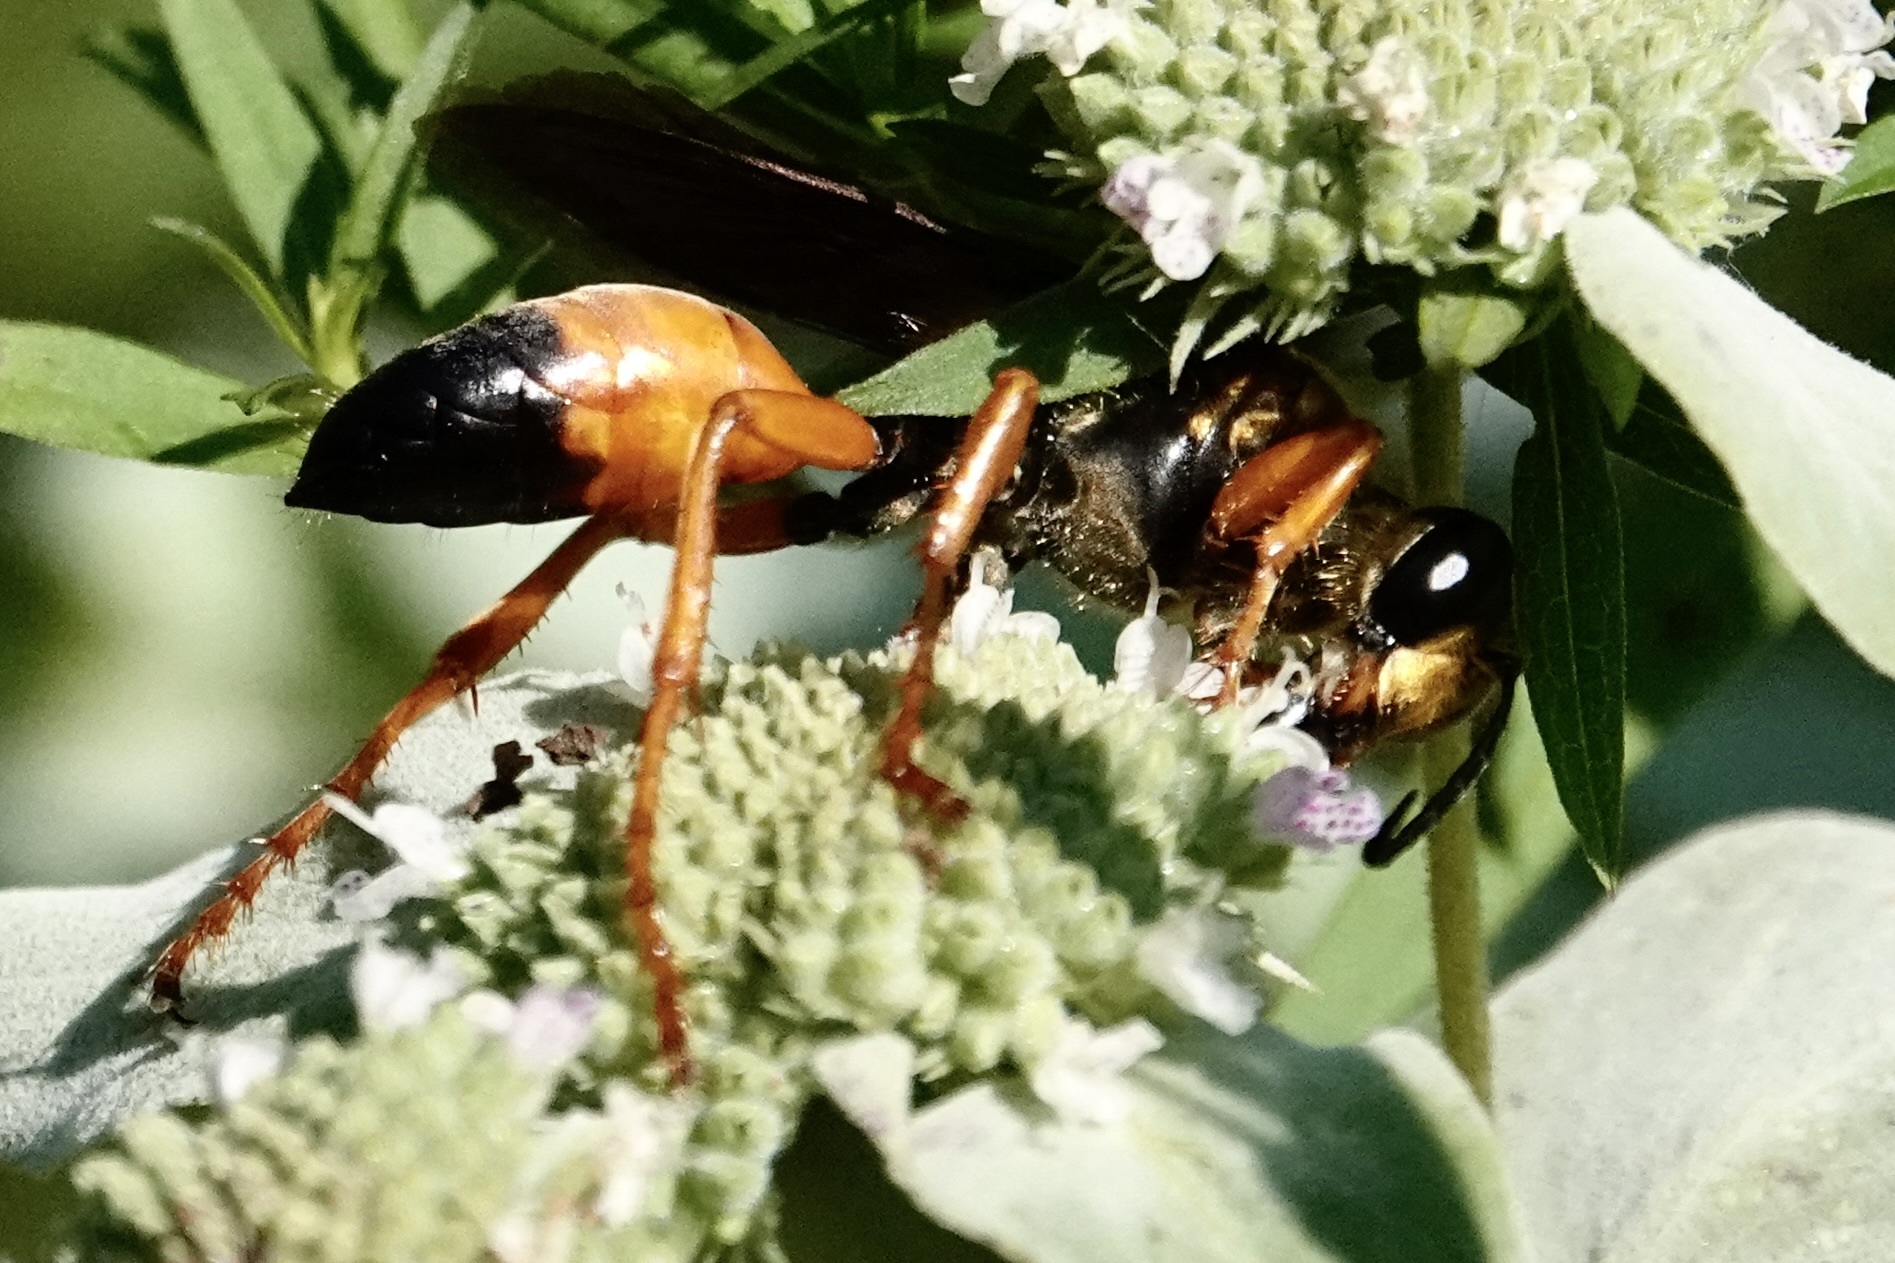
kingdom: Animalia
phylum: Arthropoda
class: Insecta
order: Hymenoptera
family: Sphecidae
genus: Sphex
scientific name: Sphex ichneumoneus
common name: Great golden digger wasp
